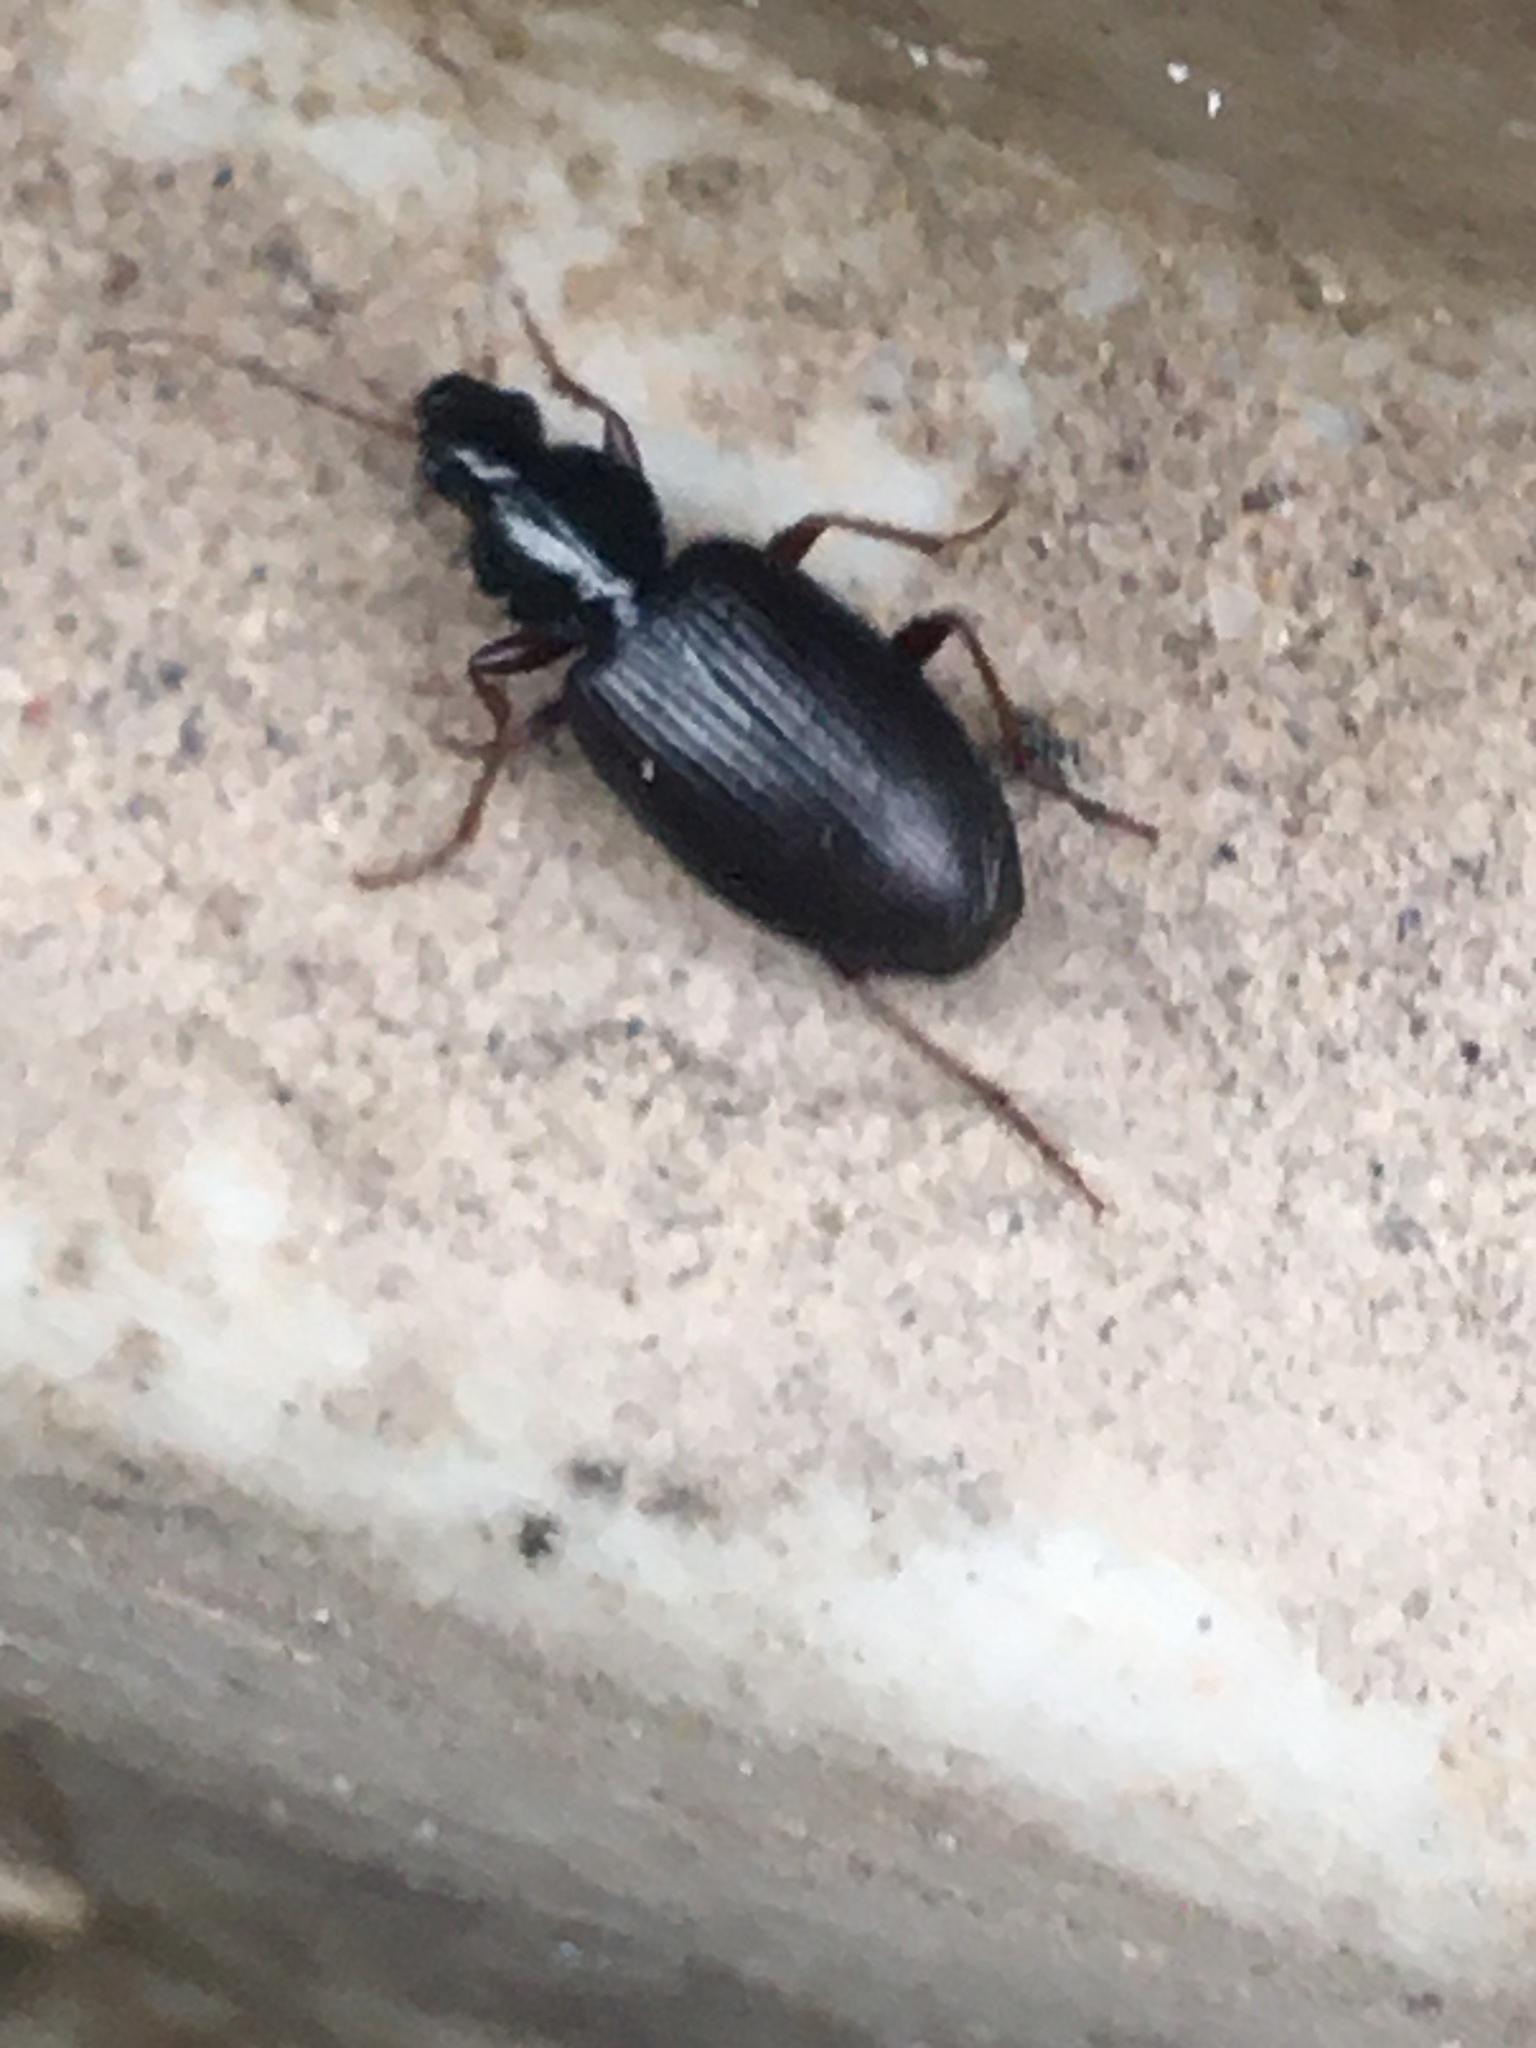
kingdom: Animalia
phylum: Arthropoda
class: Insecta
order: Coleoptera
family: Carabidae
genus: Agonum
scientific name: Agonum punctiforme
